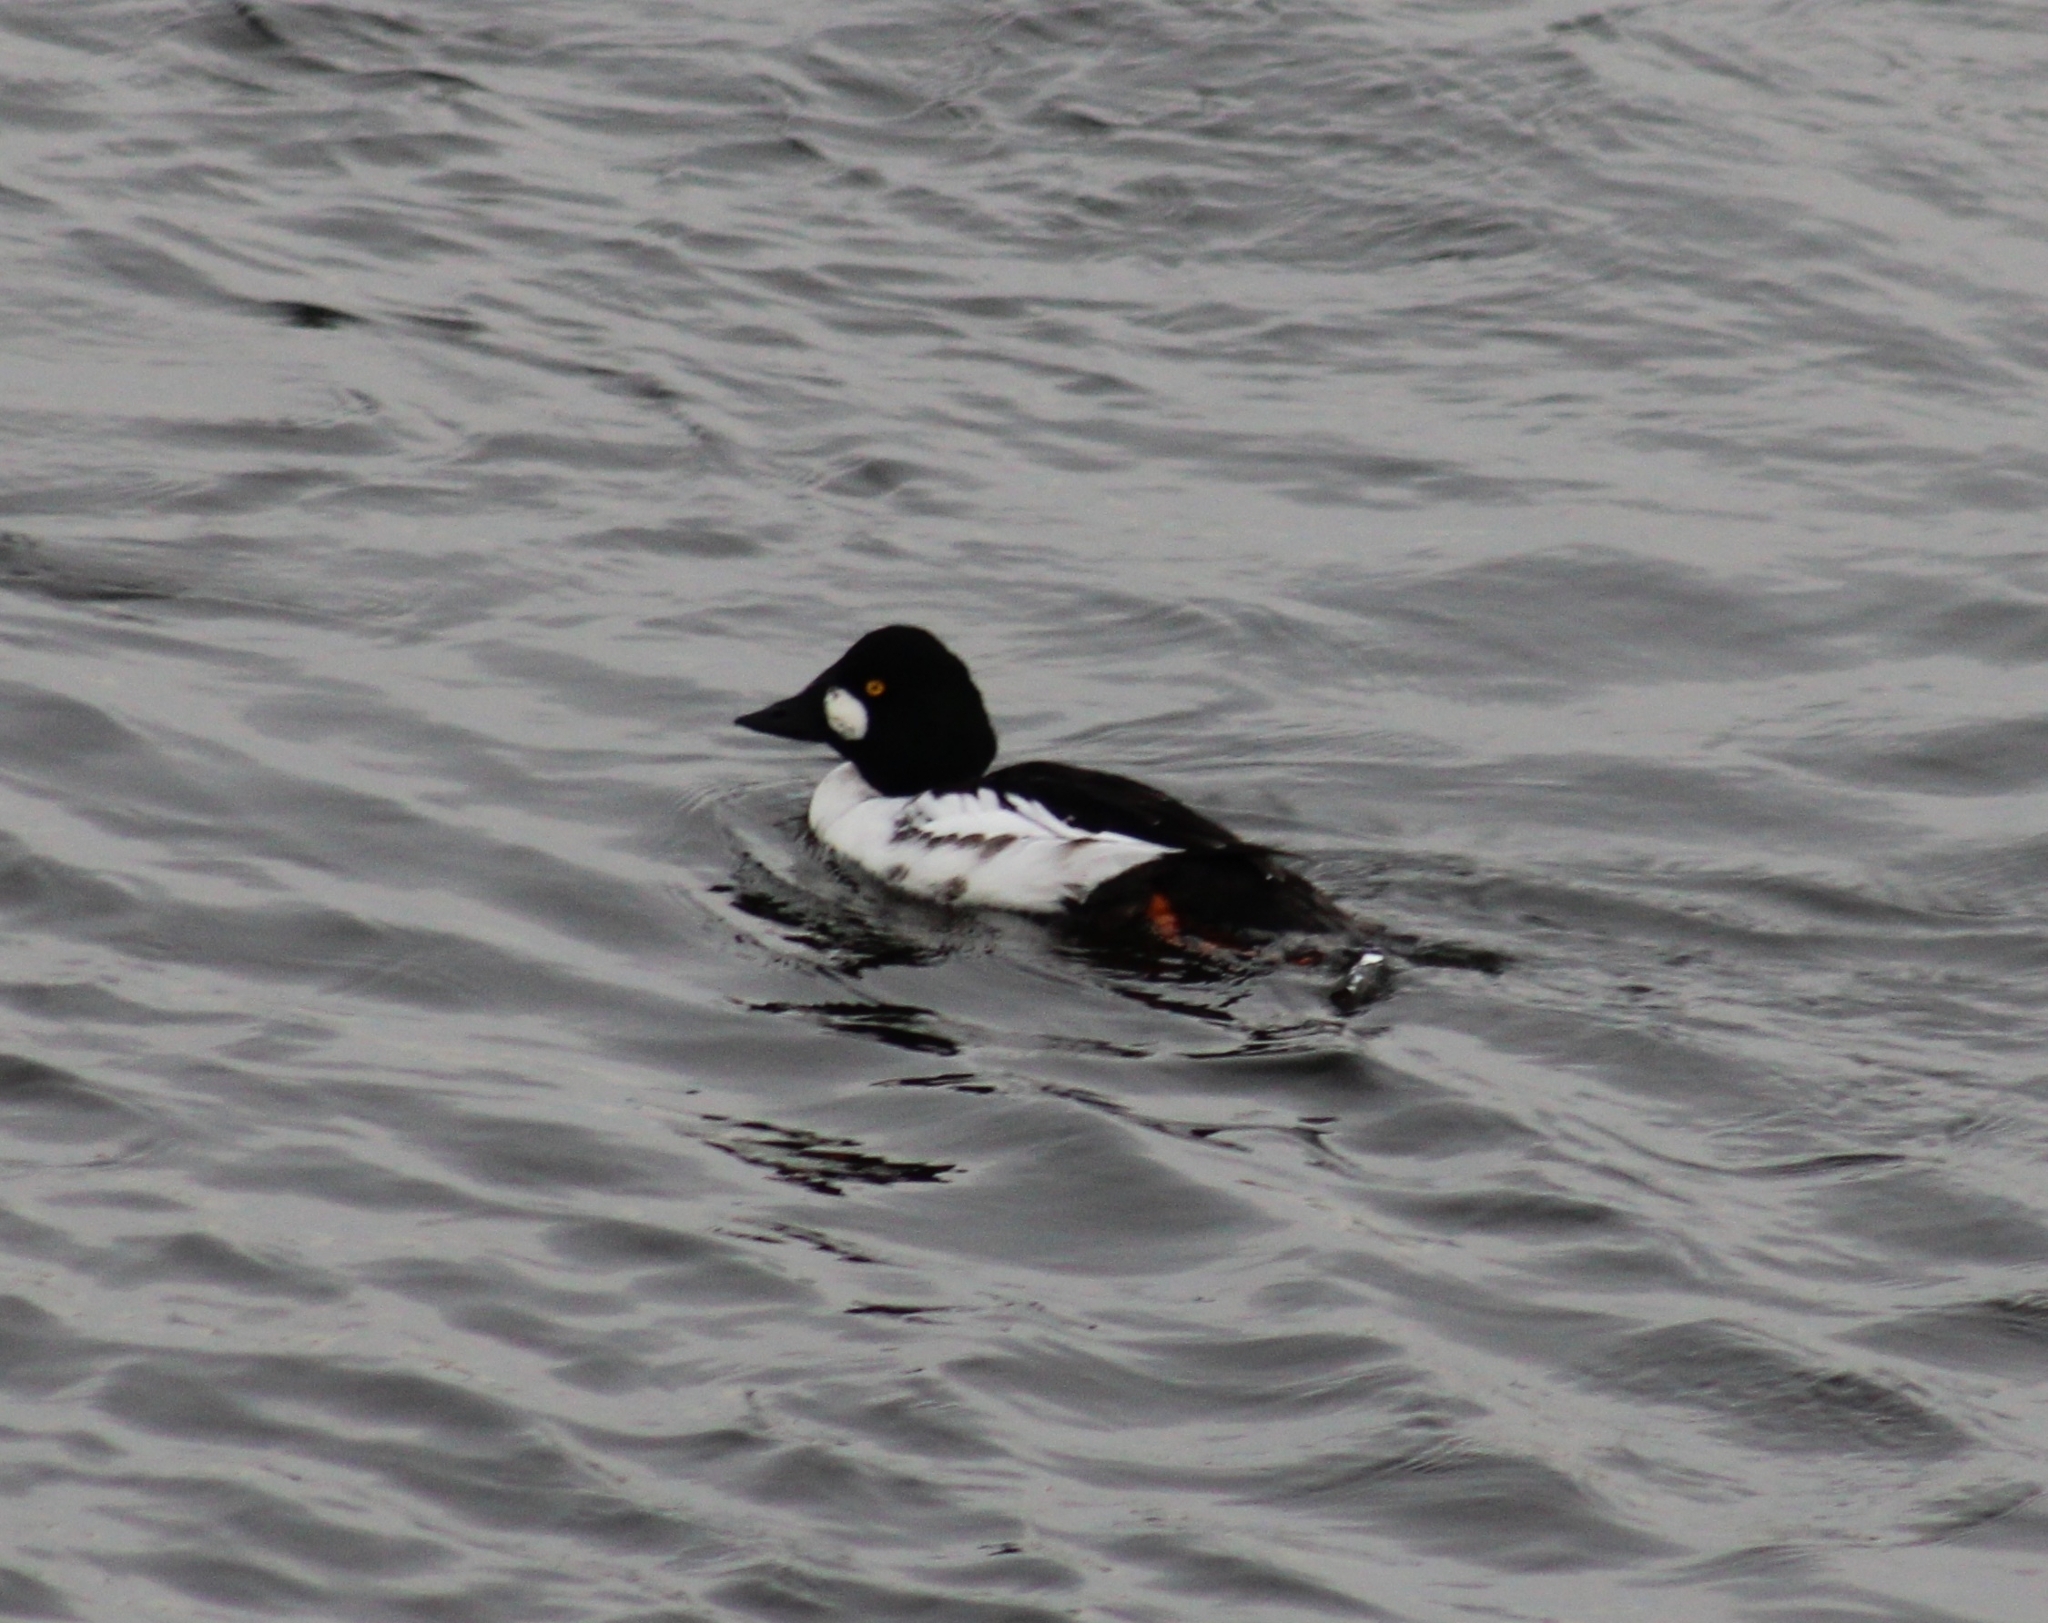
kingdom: Animalia
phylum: Chordata
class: Aves
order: Anseriformes
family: Anatidae
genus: Bucephala
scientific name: Bucephala clangula
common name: Common goldeneye
